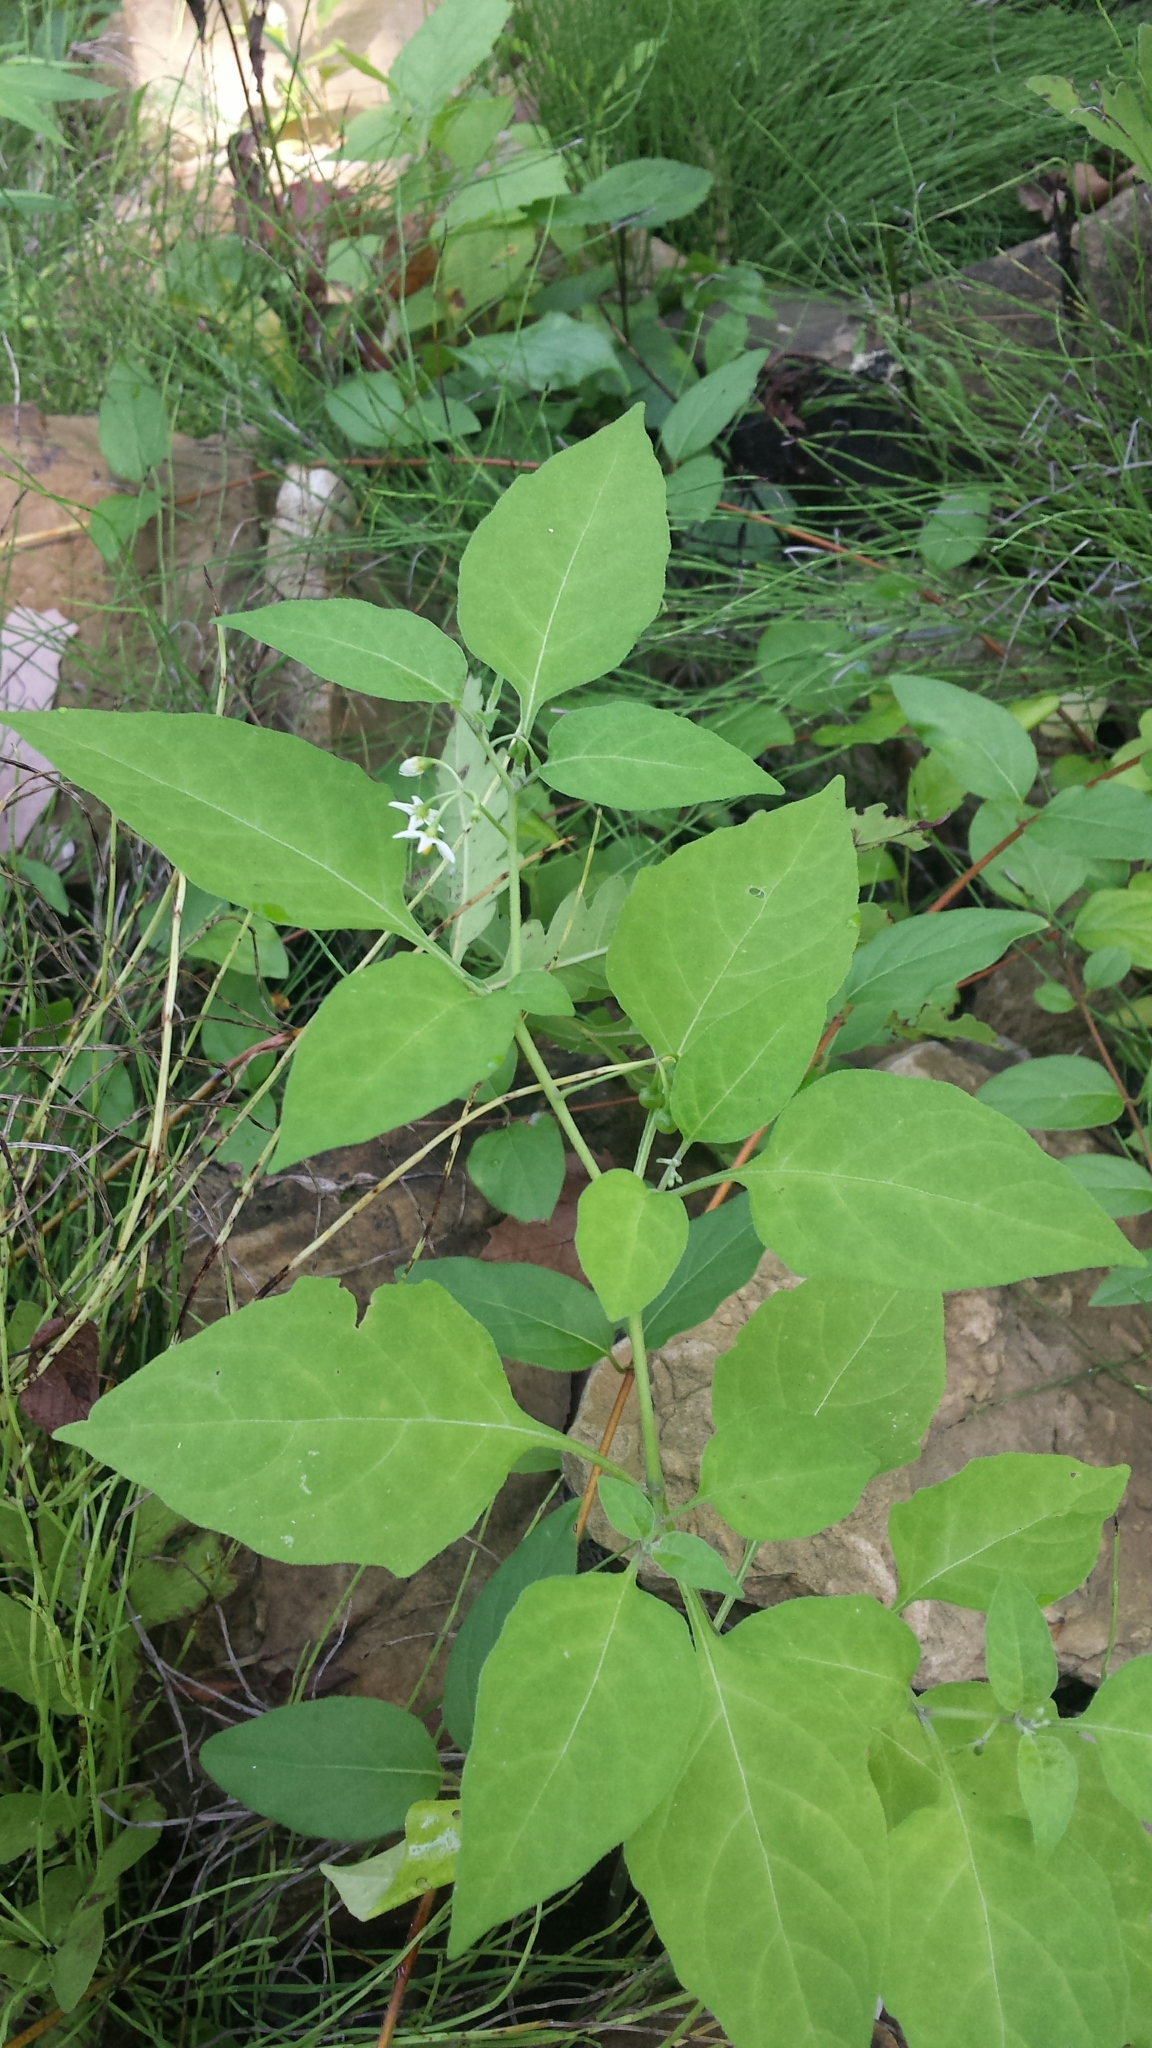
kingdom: Plantae
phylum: Tracheophyta
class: Magnoliopsida
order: Solanales
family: Solanaceae
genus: Solanum
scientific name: Solanum emulans
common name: Eastern black nightshade
